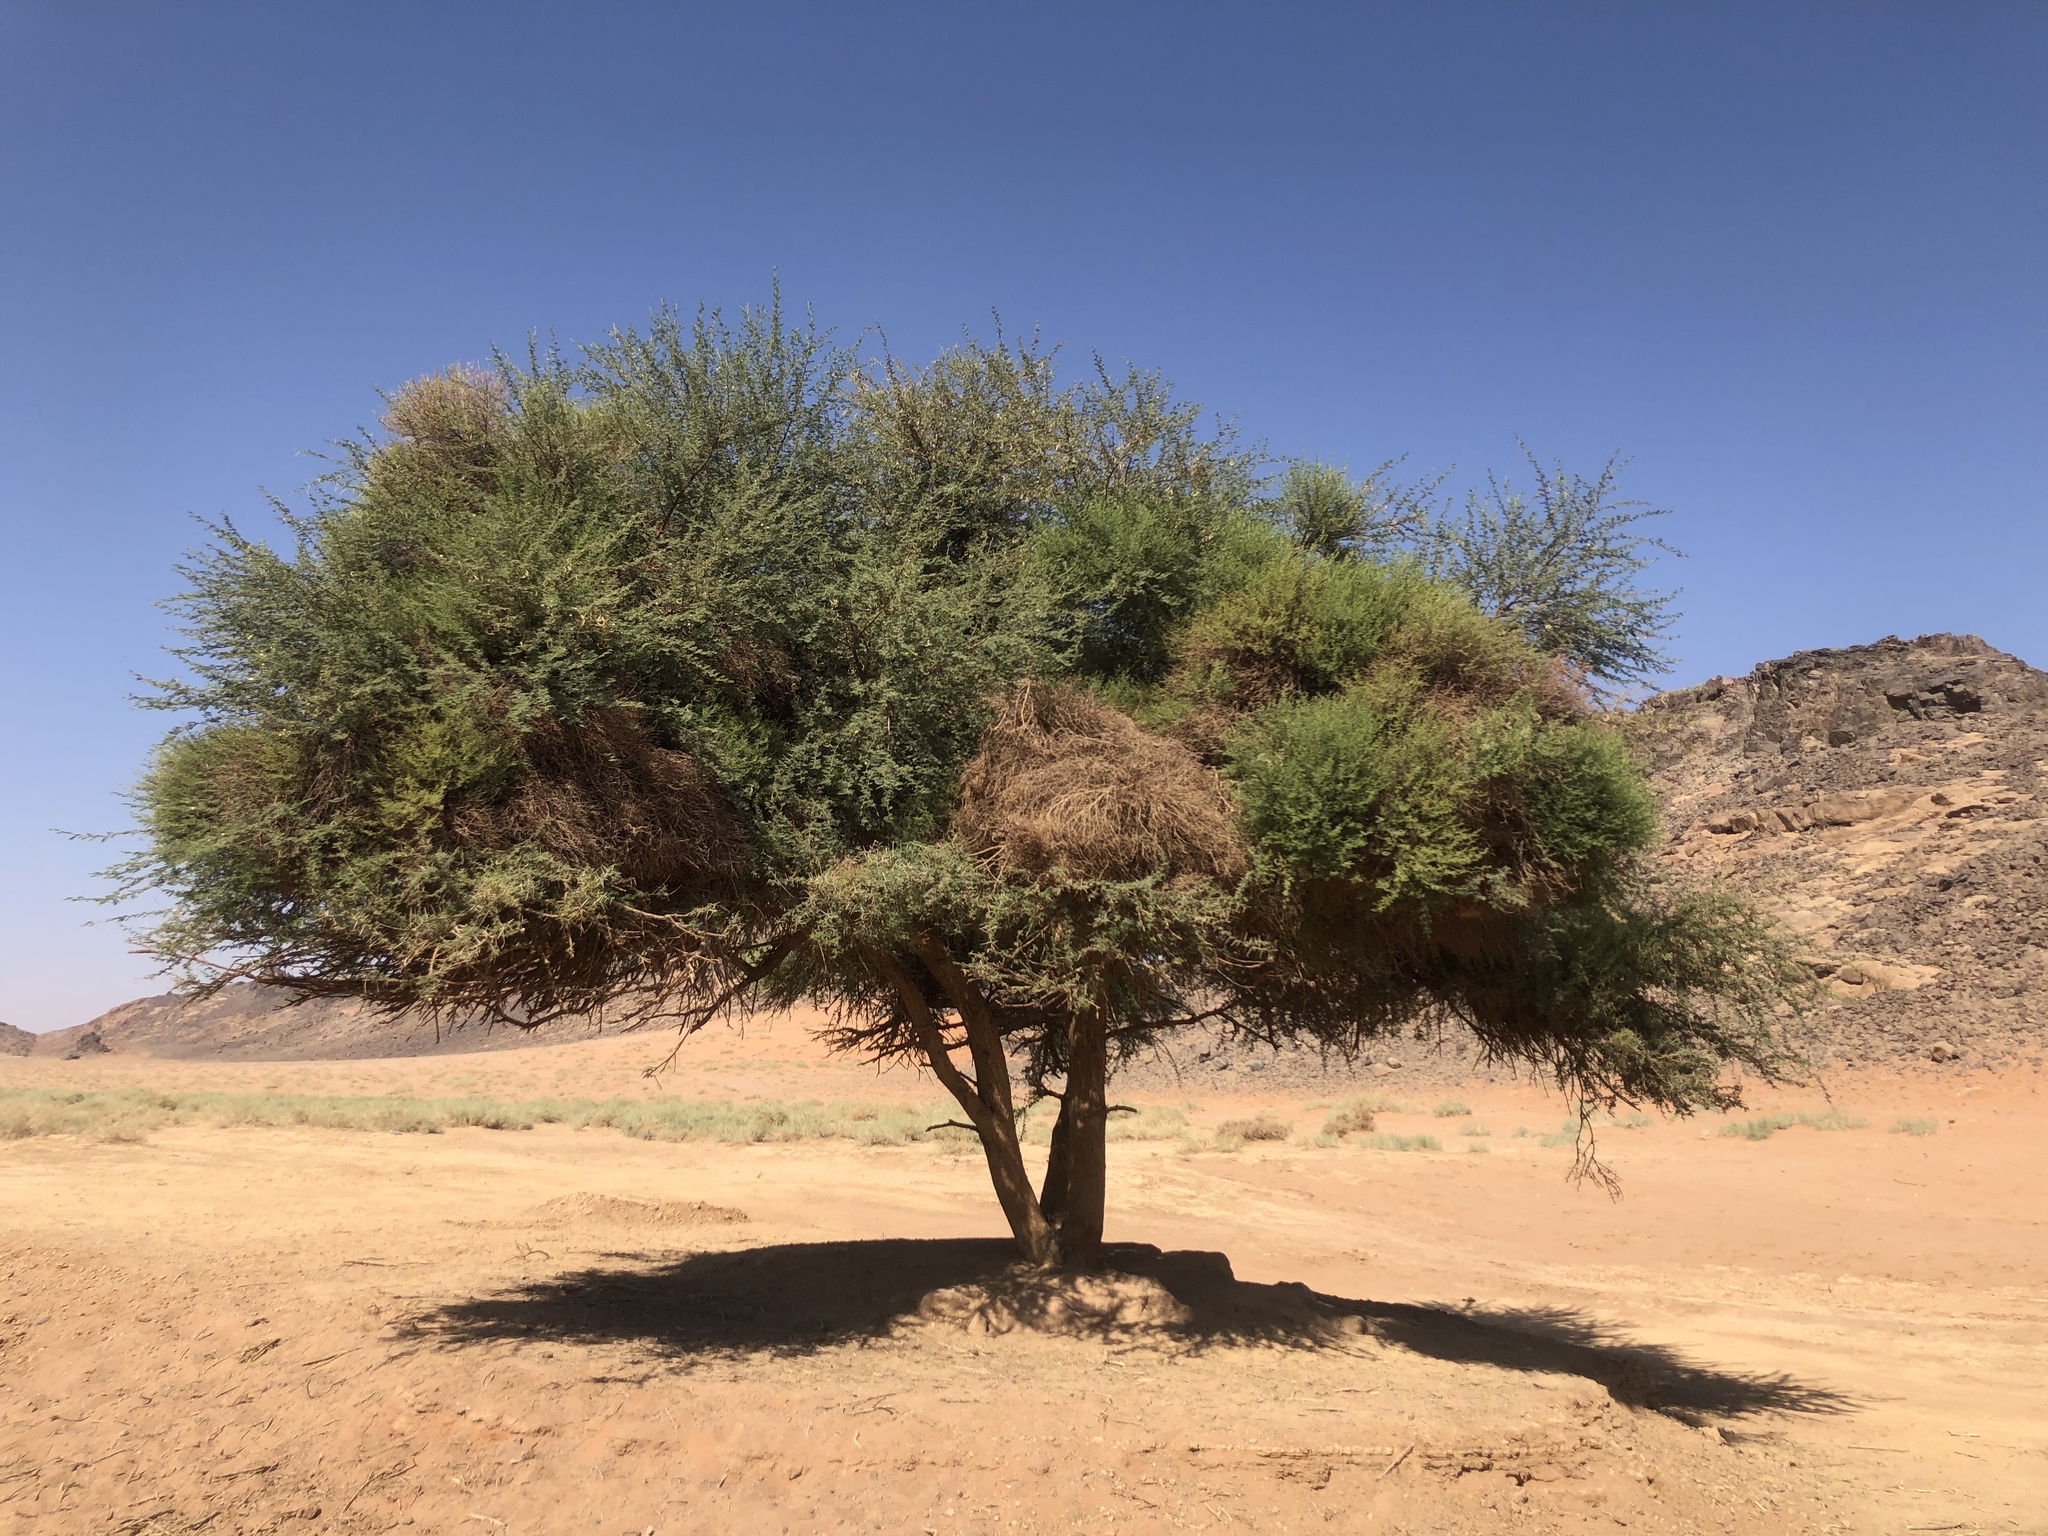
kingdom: Plantae
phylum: Tracheophyta
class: Magnoliopsida
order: Fabales
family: Fabaceae
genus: Vachellia
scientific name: Vachellia tortilis
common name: Umbrella thorn acacia
